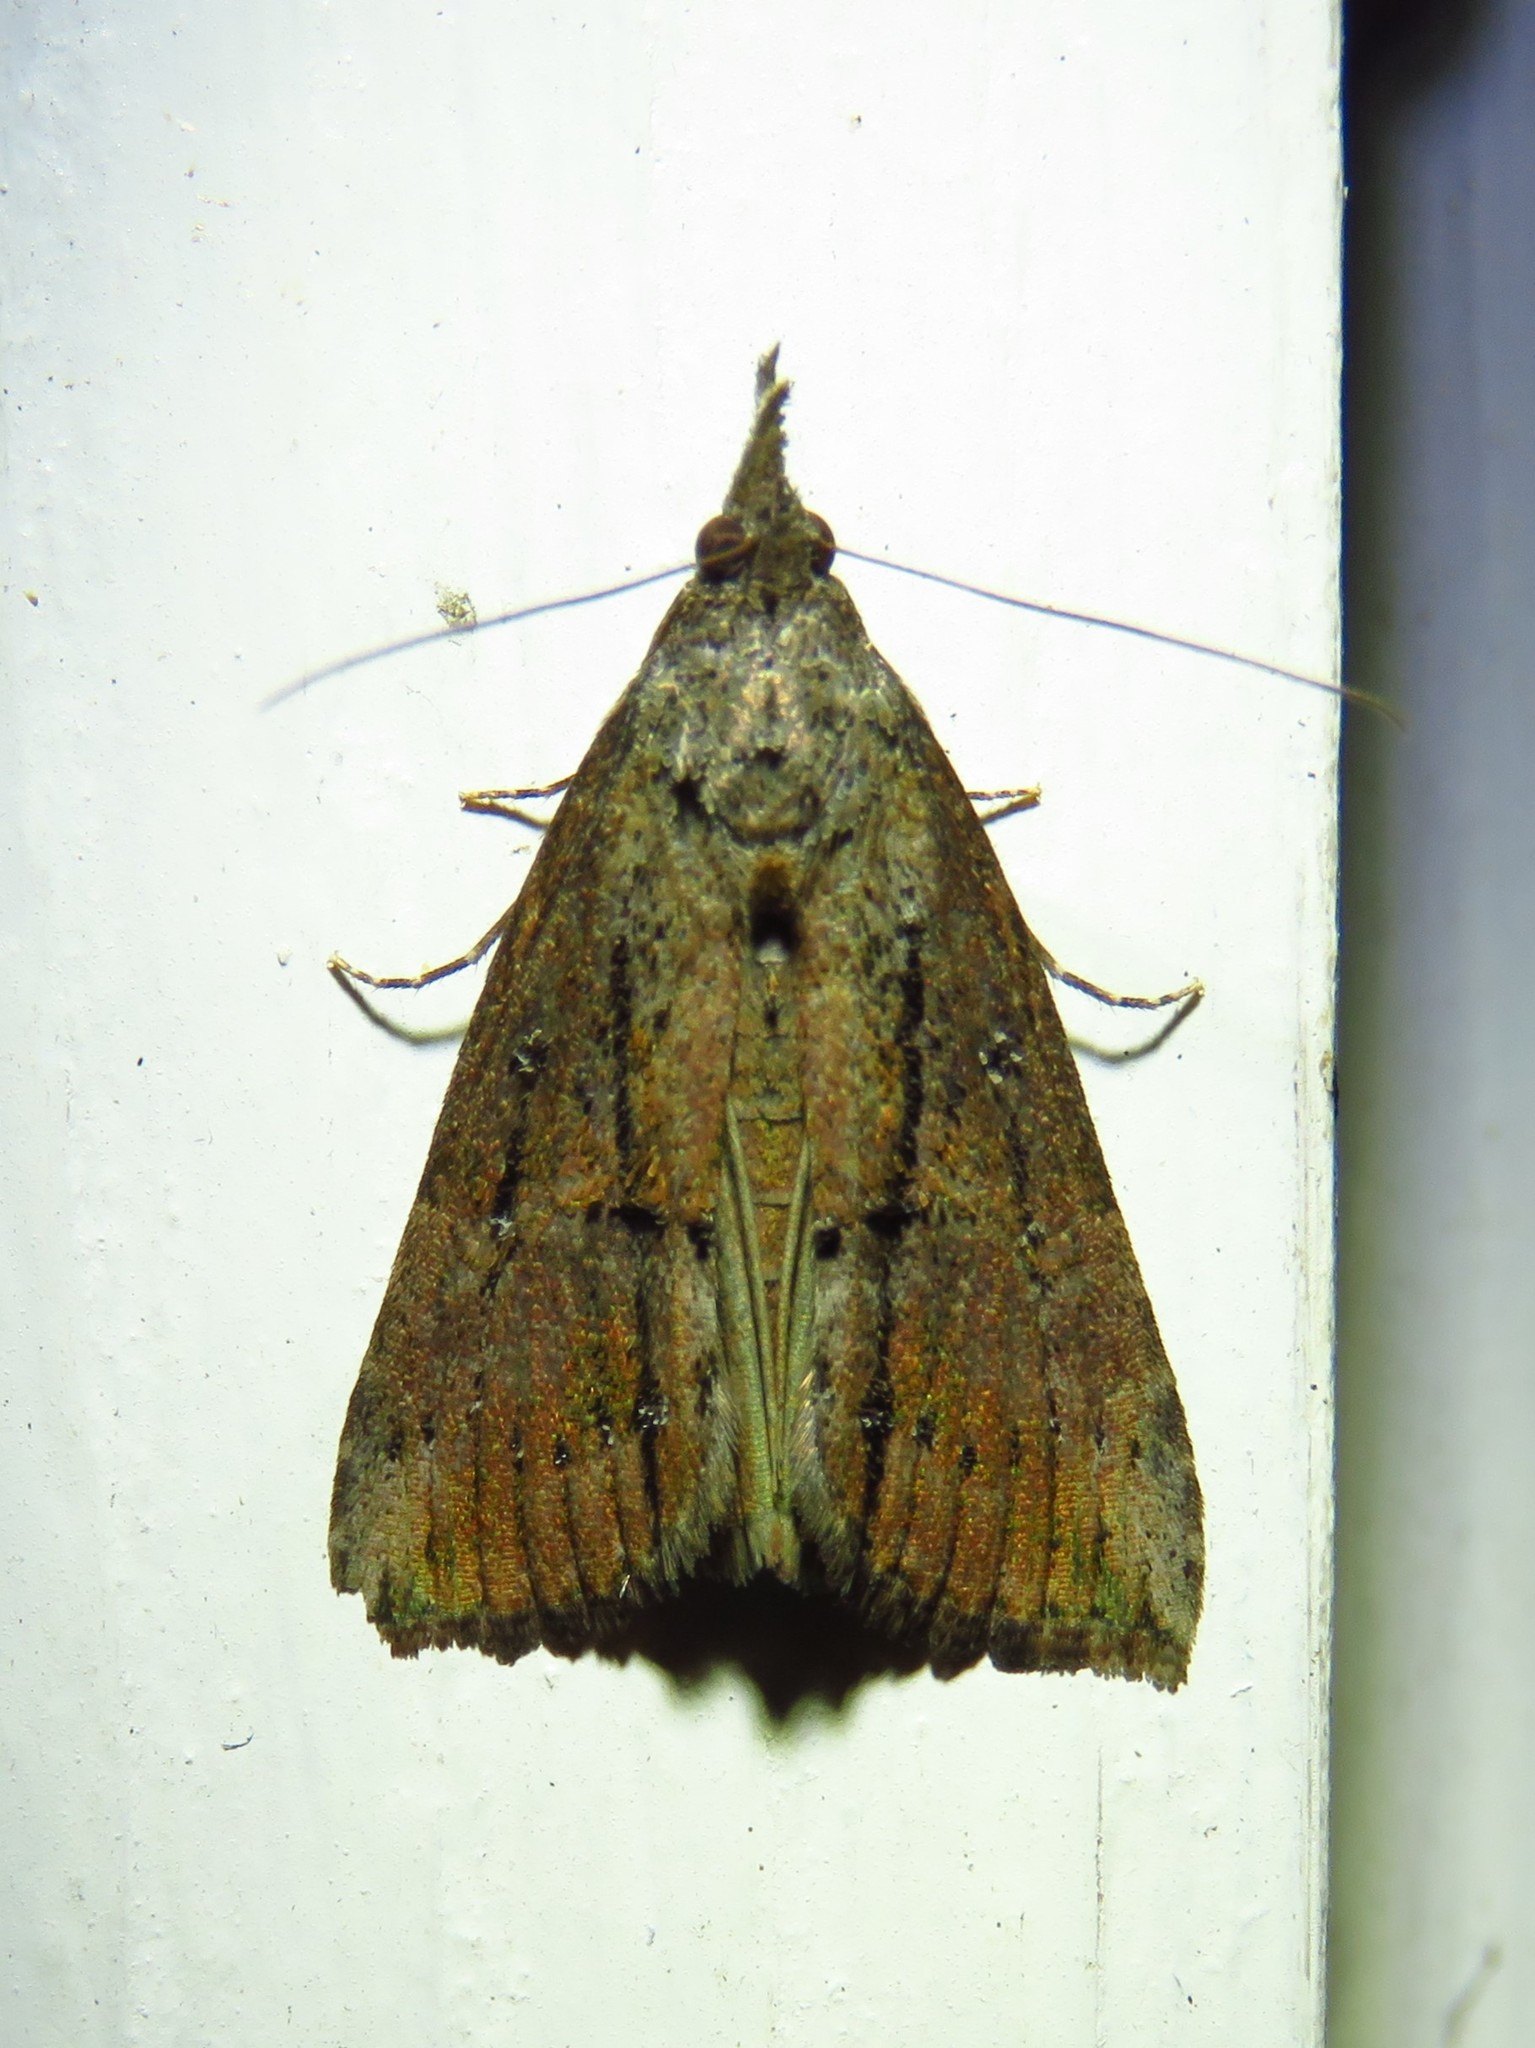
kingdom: Animalia
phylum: Arthropoda
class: Insecta
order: Lepidoptera
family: Erebidae
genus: Hypena
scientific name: Hypena scabra
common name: Green cloverworm
